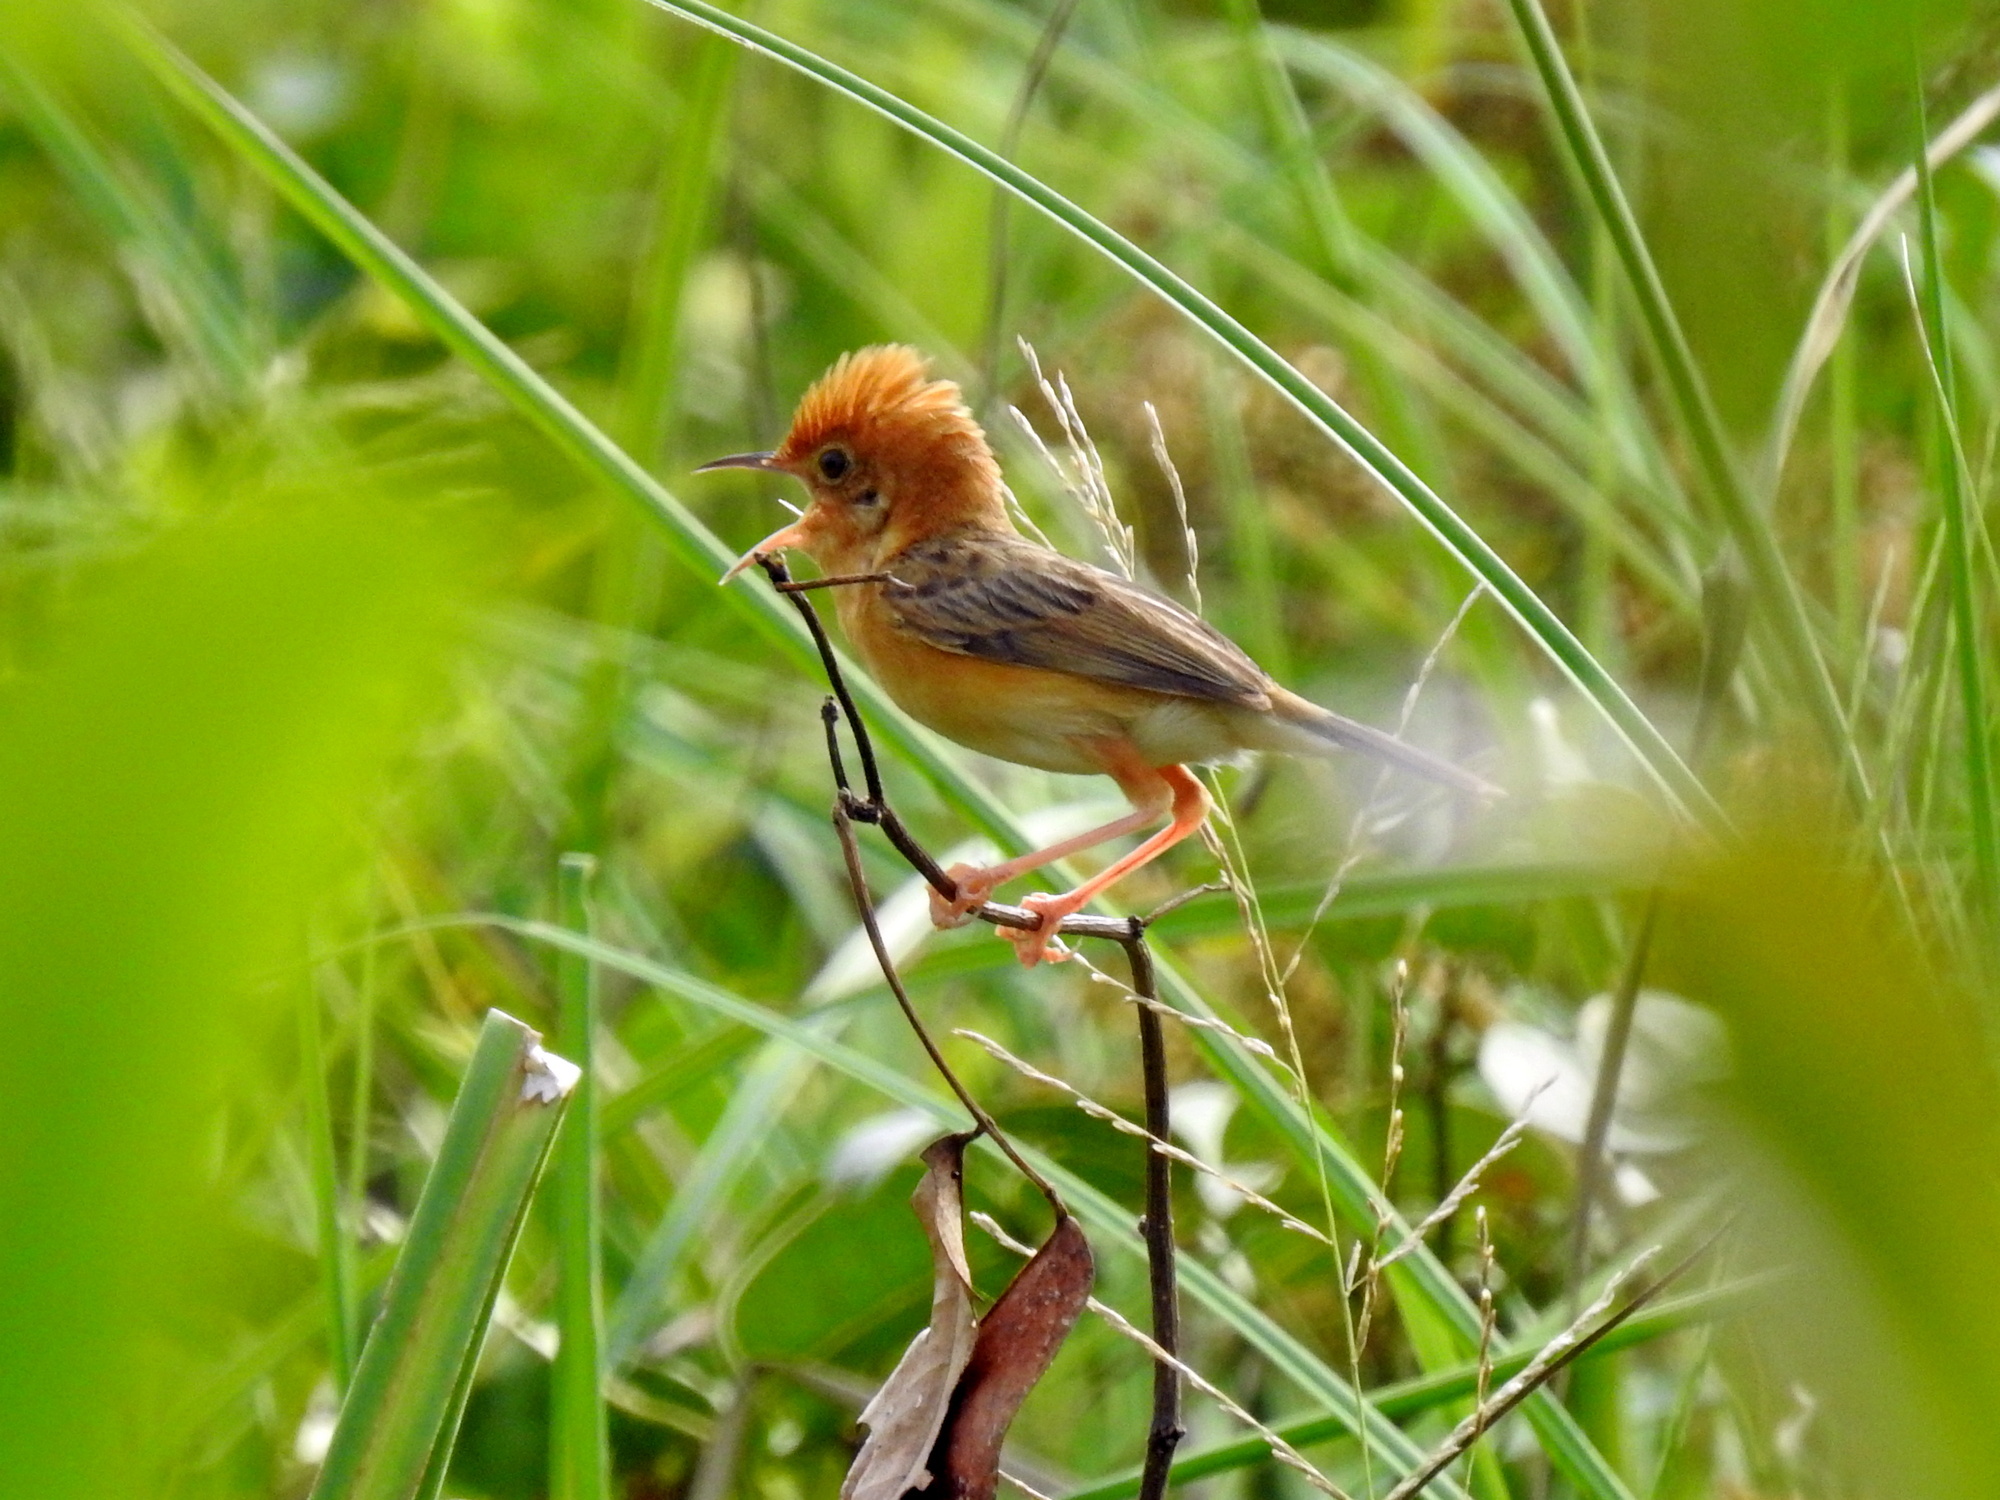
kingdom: Animalia
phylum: Chordata
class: Aves
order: Passeriformes
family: Cisticolidae
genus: Cisticola
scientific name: Cisticola exilis
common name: Golden-headed cisticola
